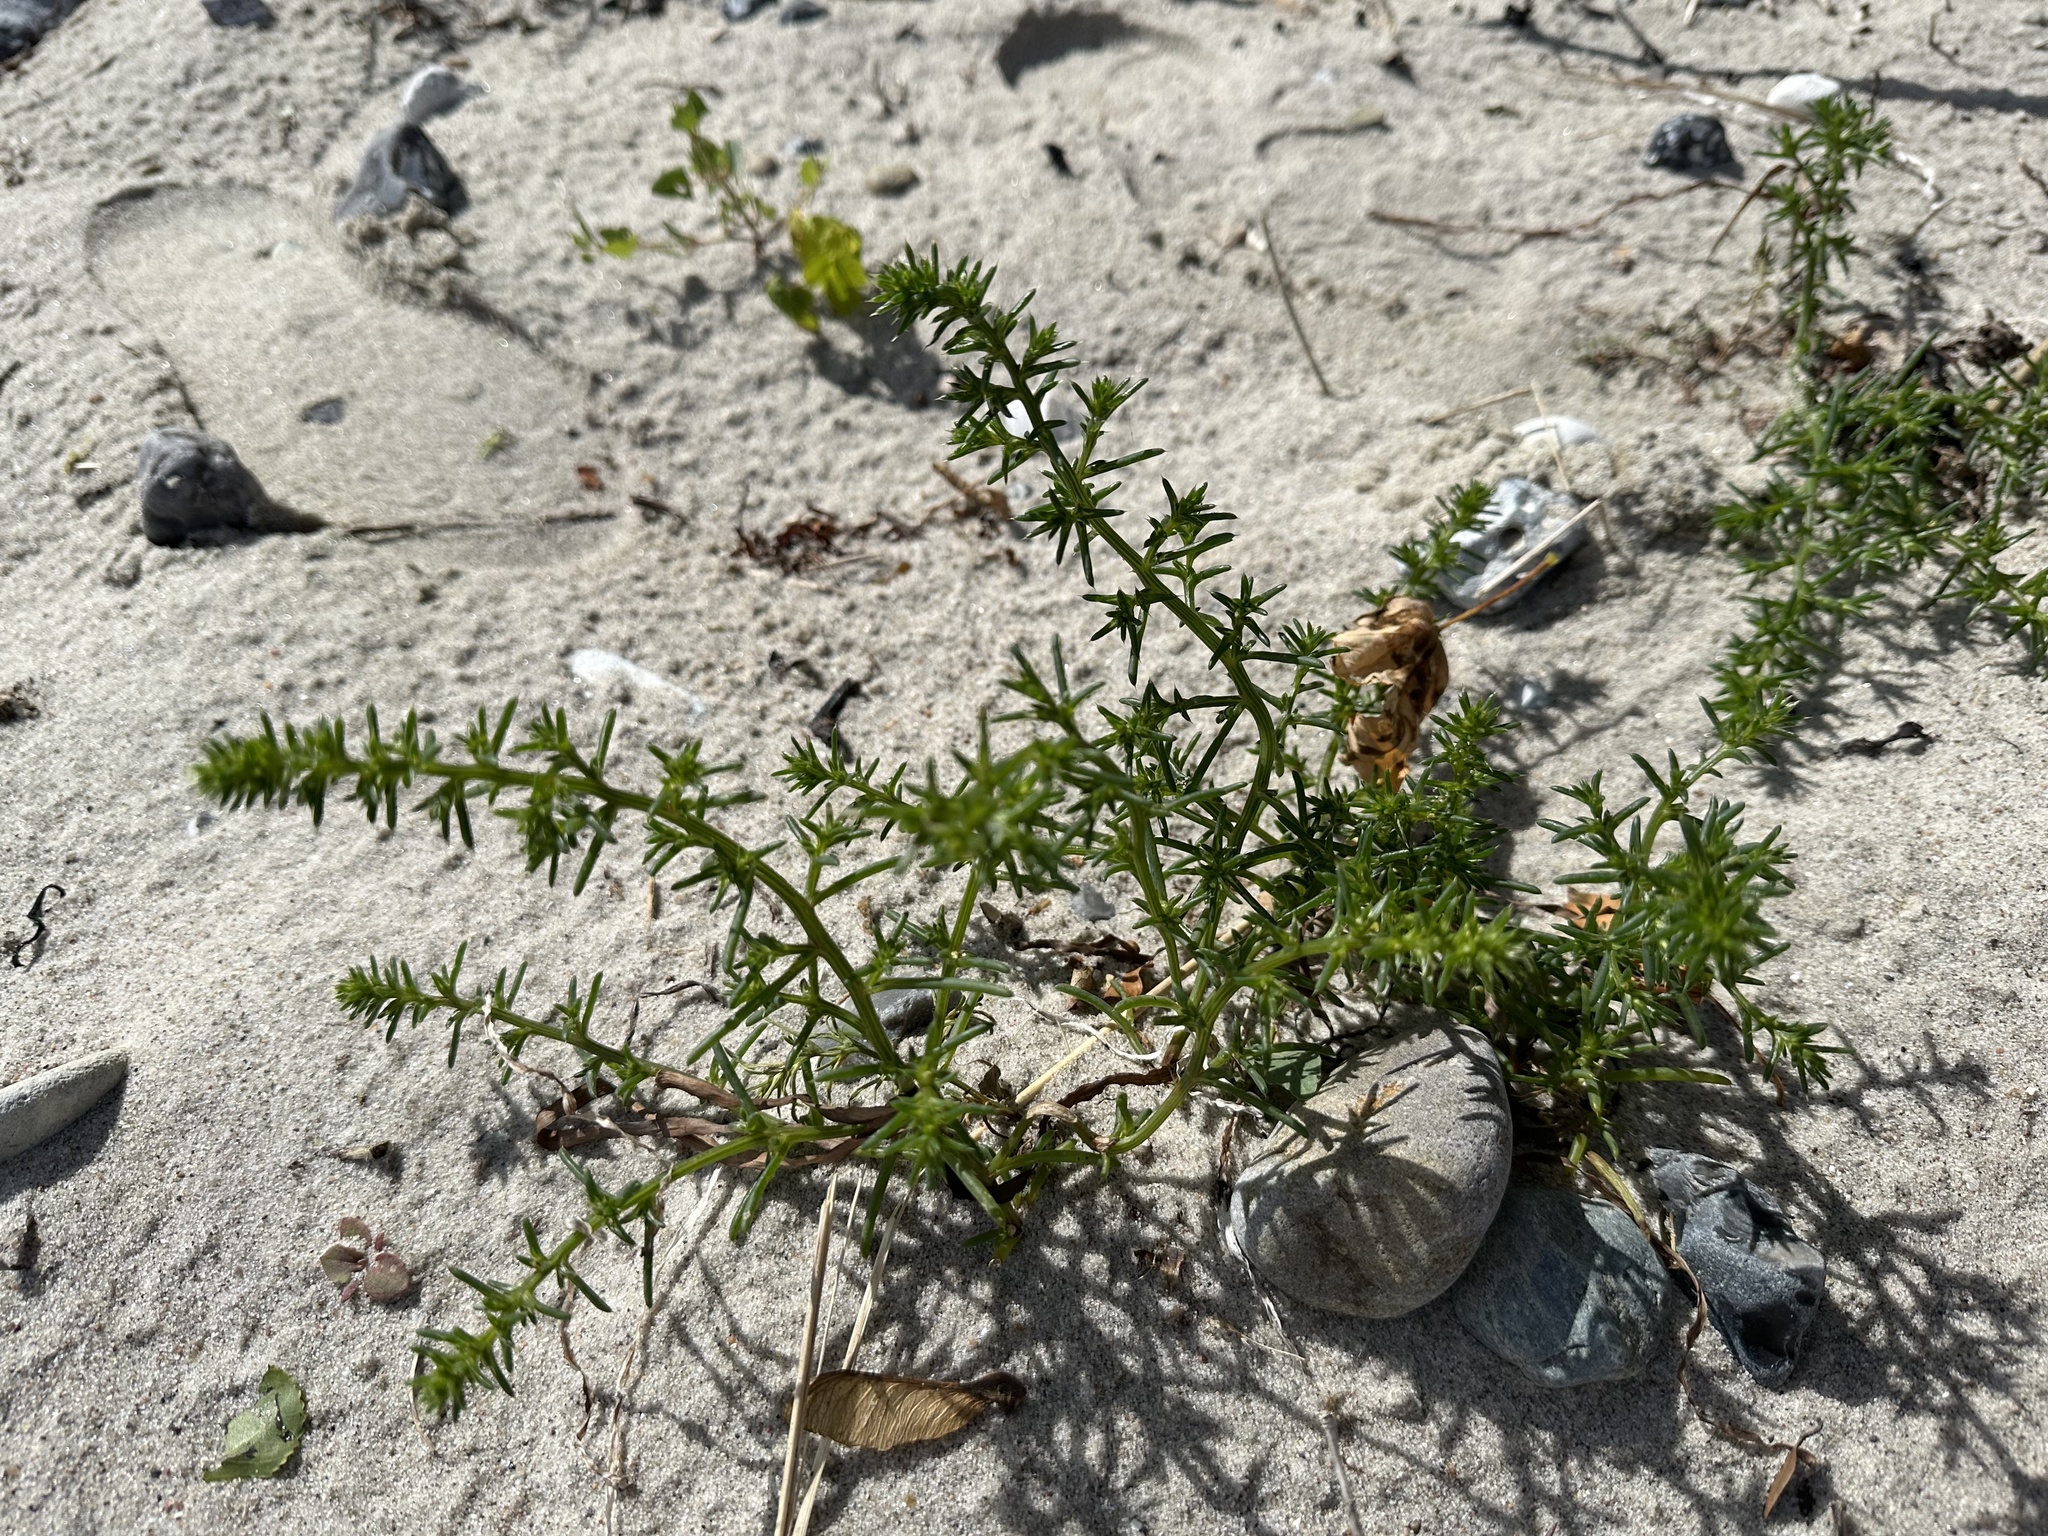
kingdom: Plantae
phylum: Tracheophyta
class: Magnoliopsida
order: Caryophyllales
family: Amaranthaceae
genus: Salsola
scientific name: Salsola kali
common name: Saltwort
